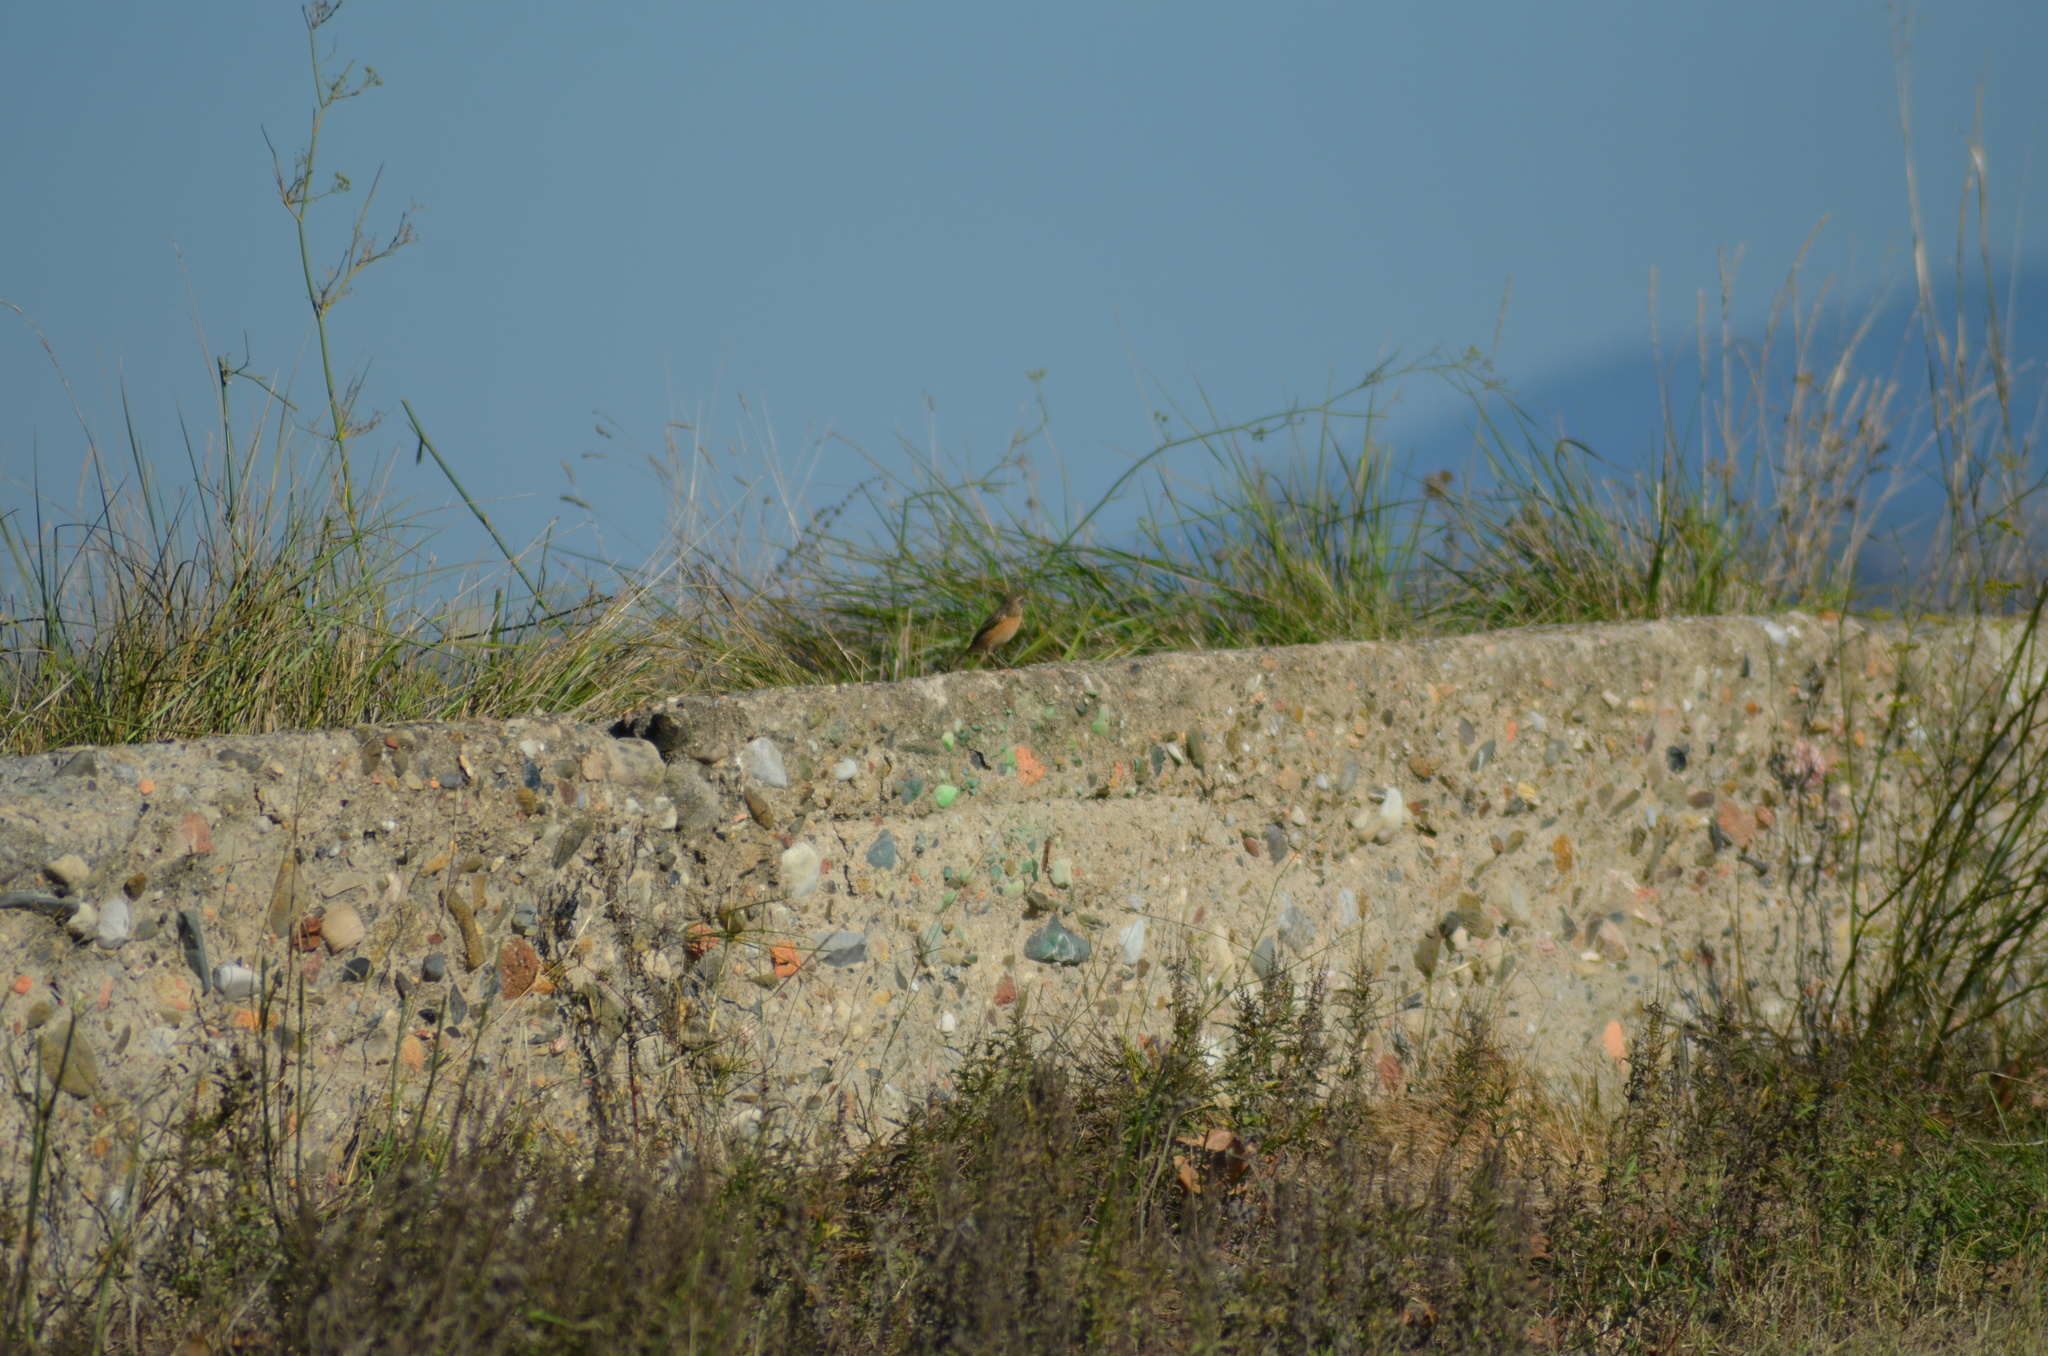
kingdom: Animalia
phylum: Chordata
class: Aves
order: Passeriformes
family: Muscicapidae
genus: Saxicola
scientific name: Saxicola rubicola
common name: European stonechat
